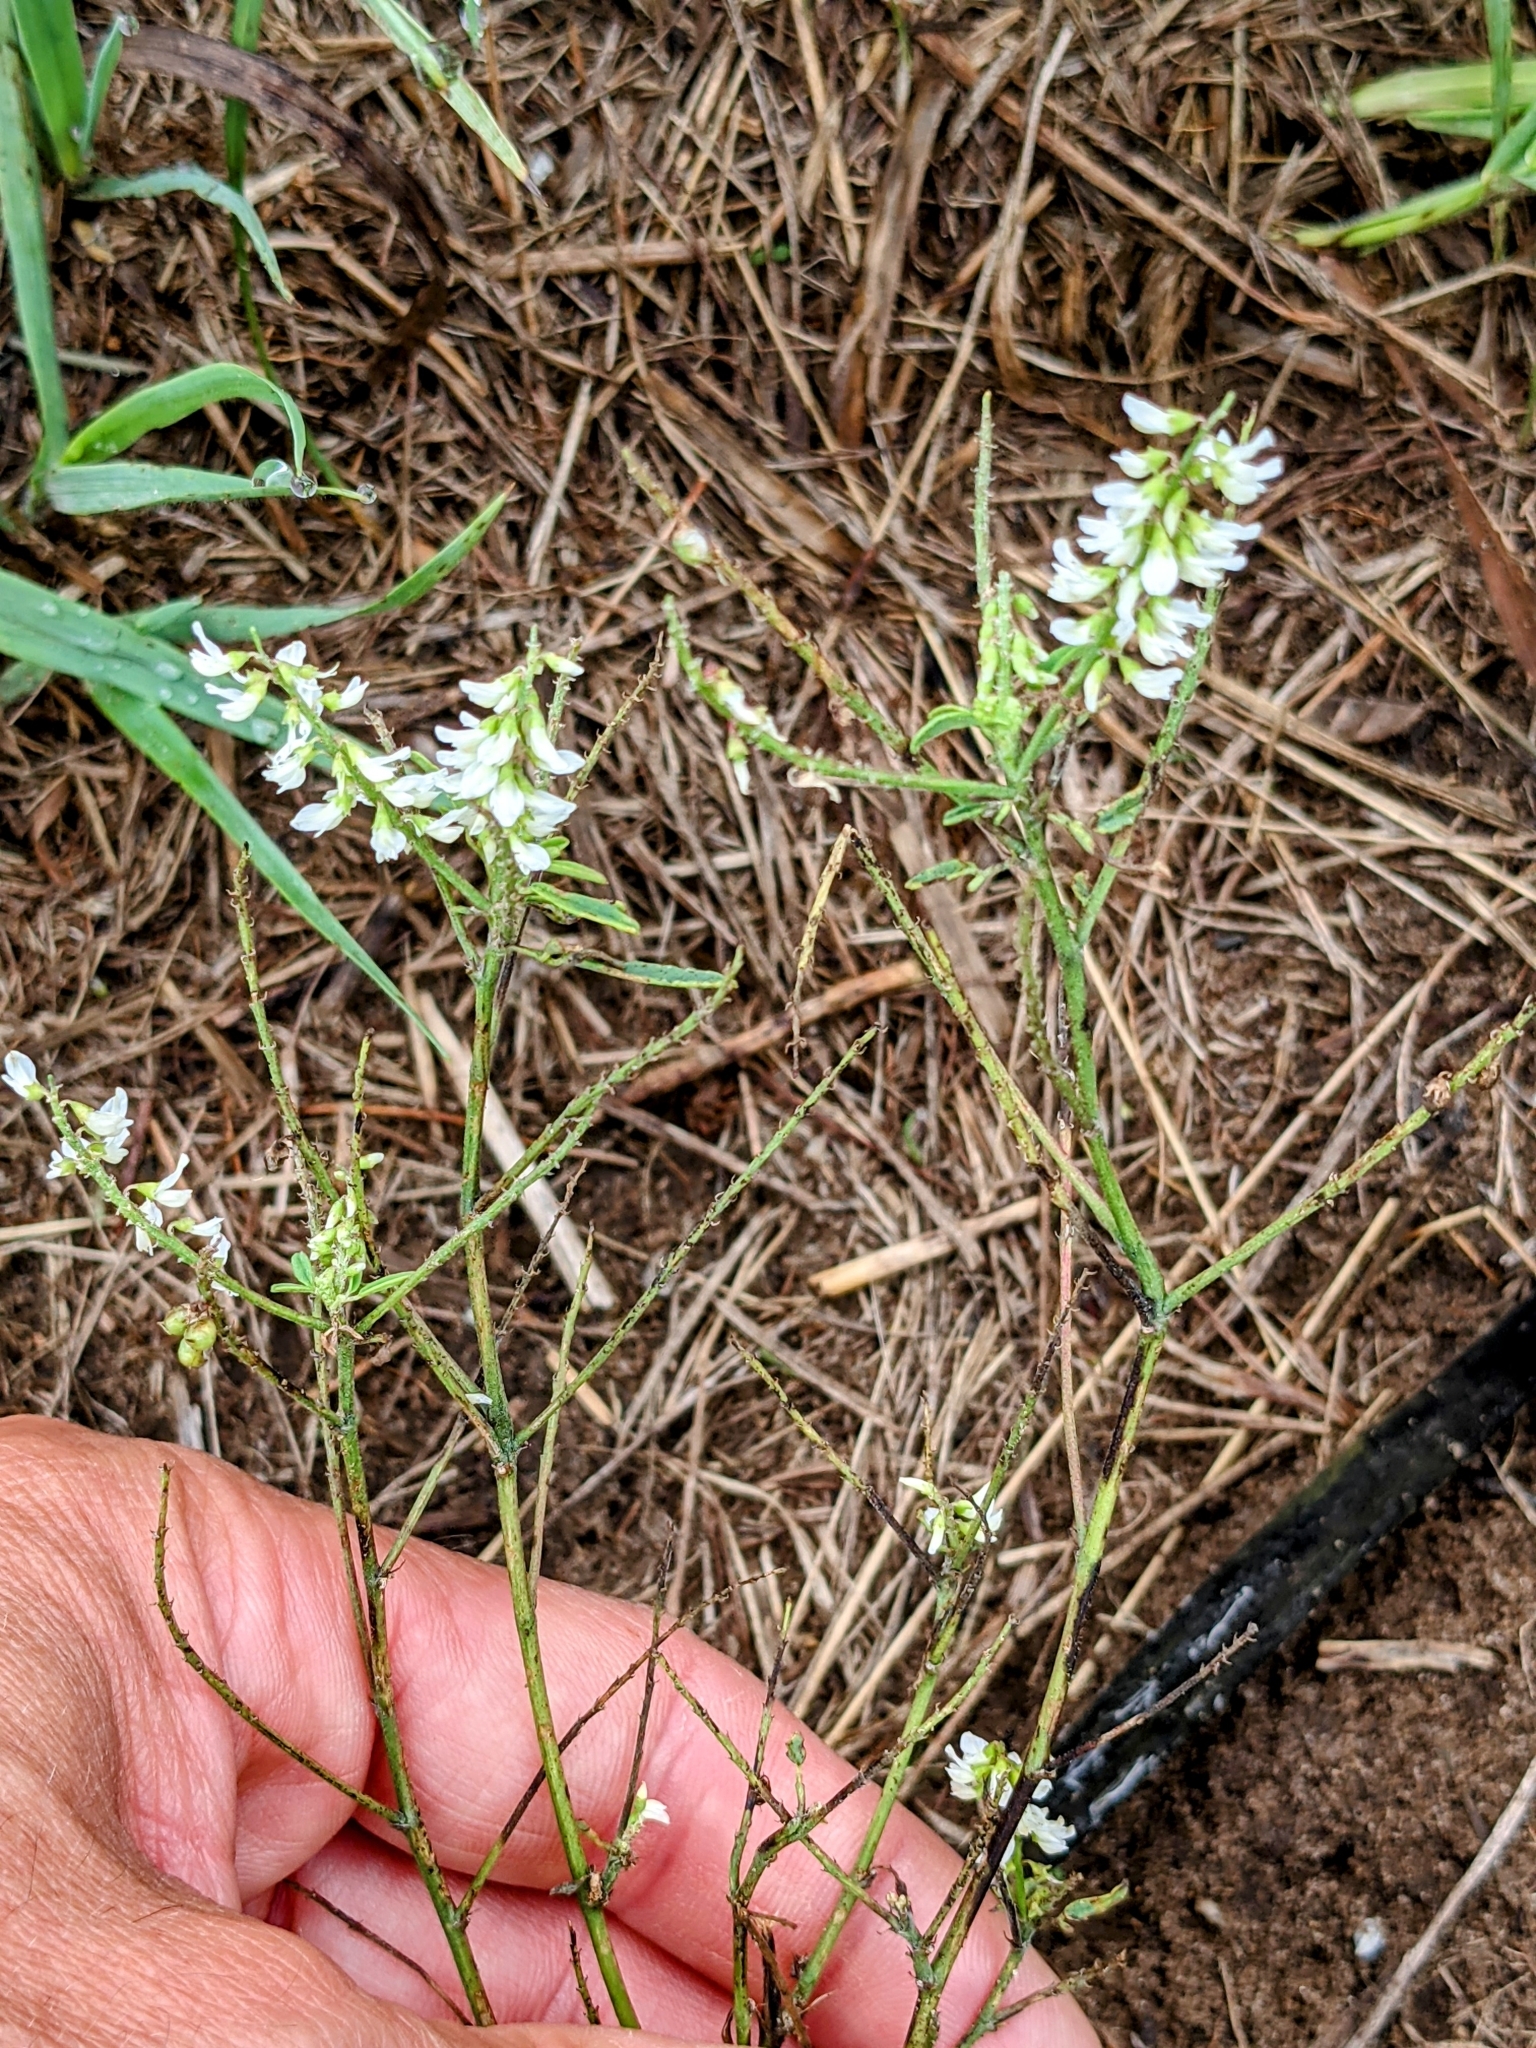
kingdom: Plantae
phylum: Tracheophyta
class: Magnoliopsida
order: Fabales
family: Fabaceae
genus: Melilotus
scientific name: Melilotus albus
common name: White melilot
